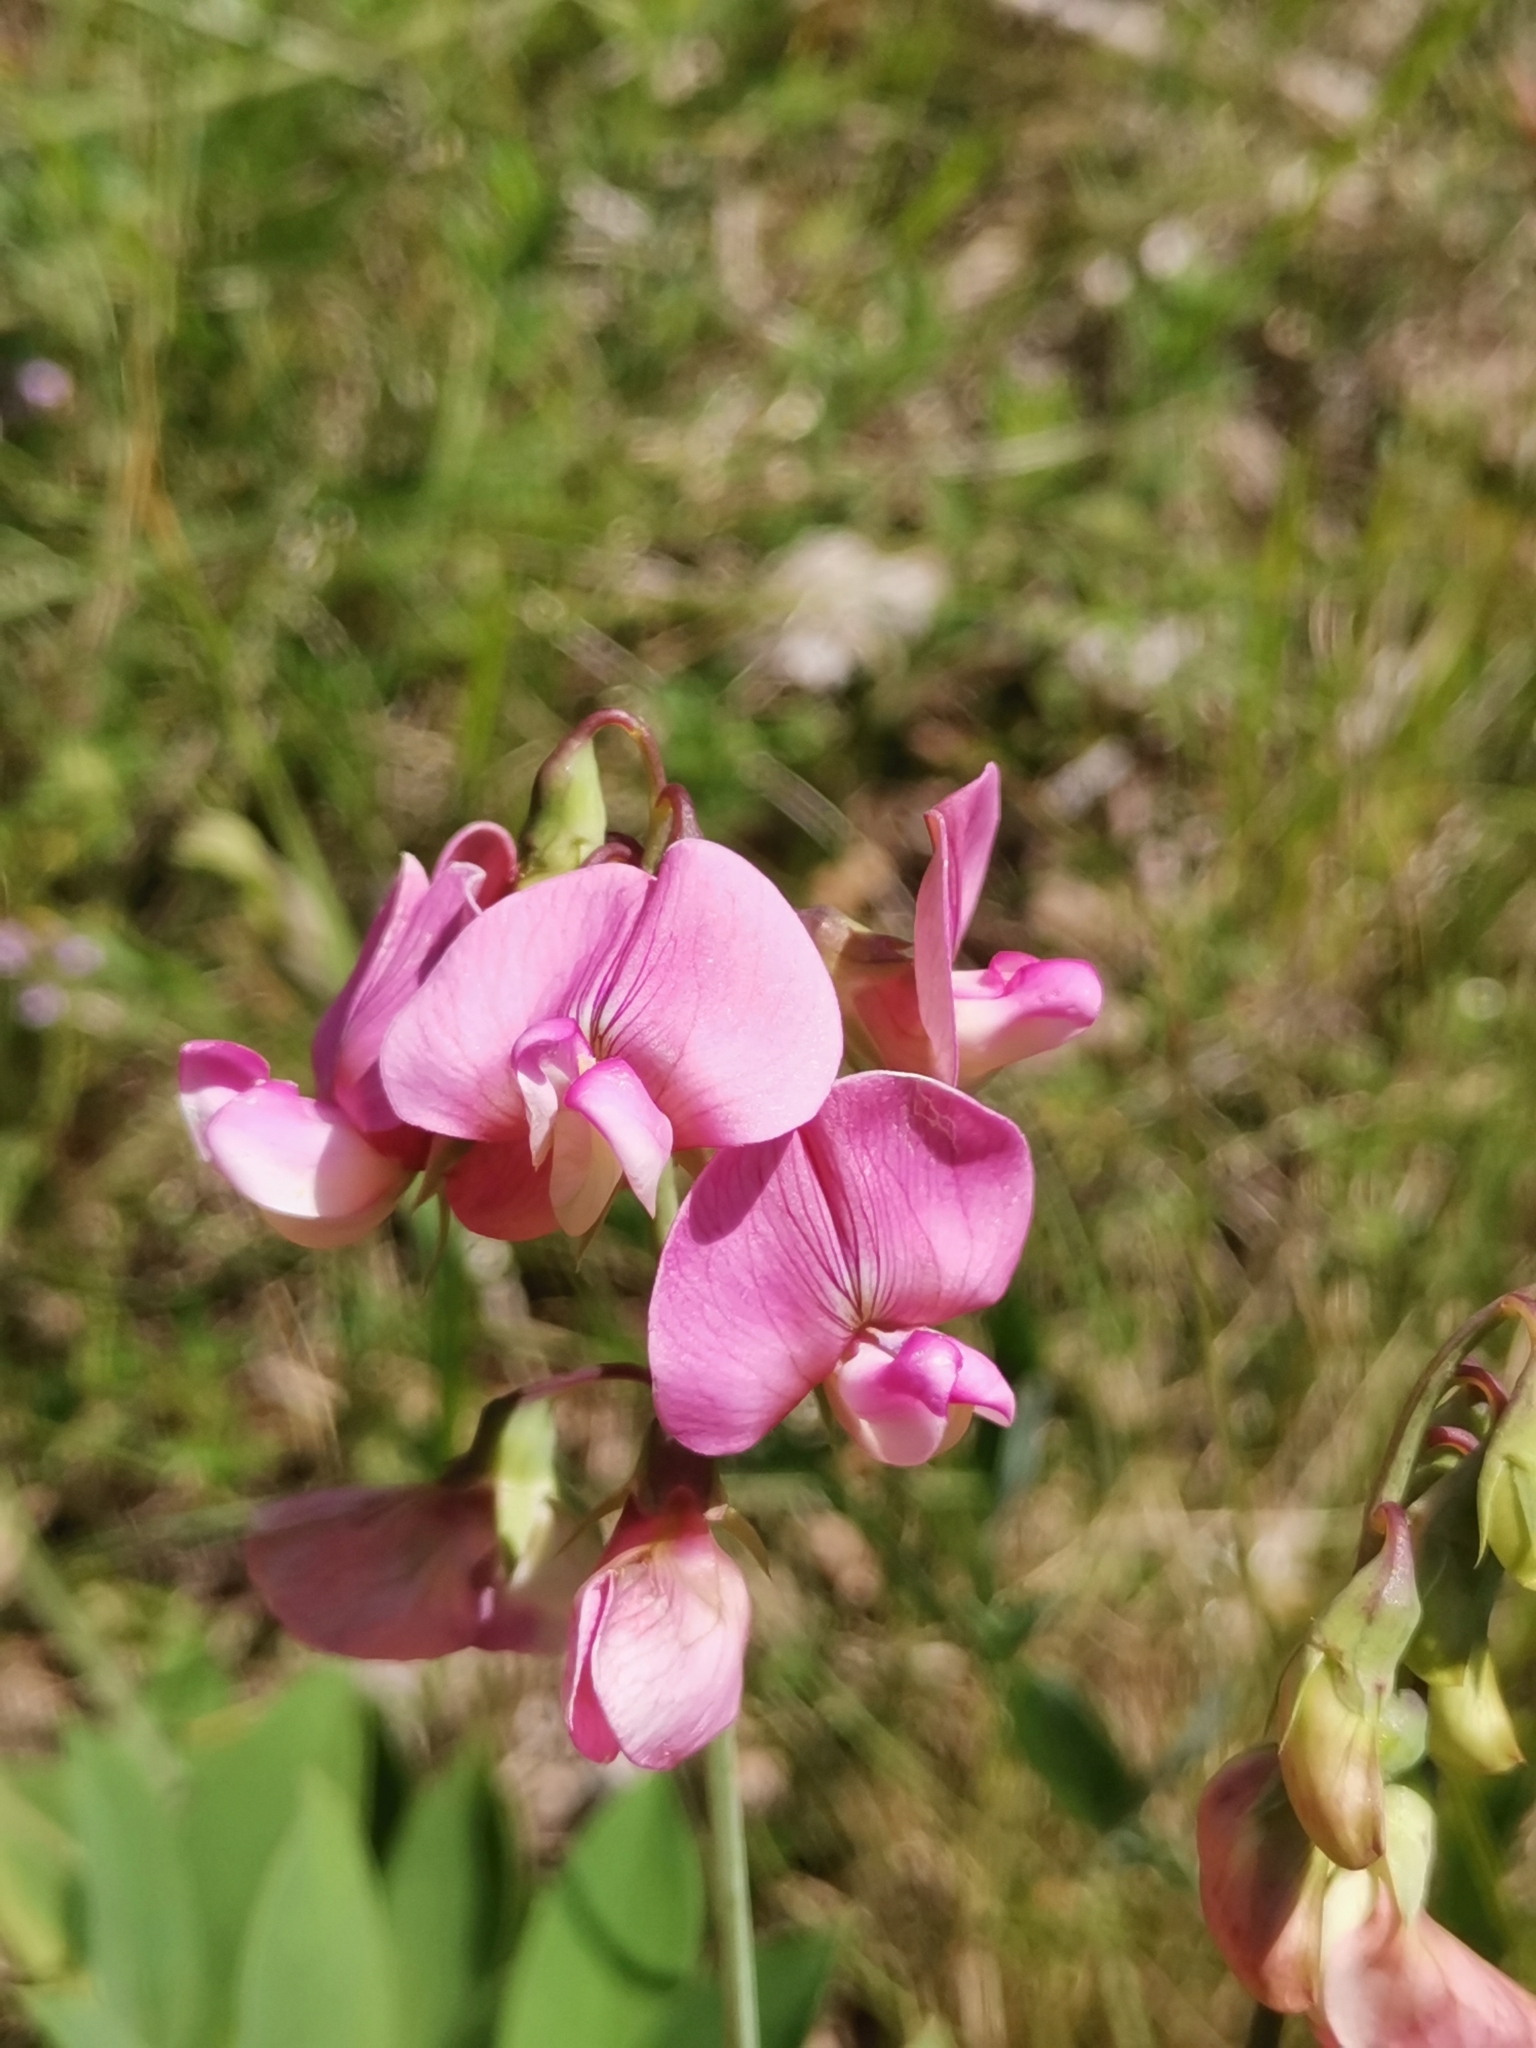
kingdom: Plantae
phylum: Tracheophyta
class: Magnoliopsida
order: Fabales
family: Fabaceae
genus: Lathyrus
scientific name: Lathyrus latifolius
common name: Perennial pea
